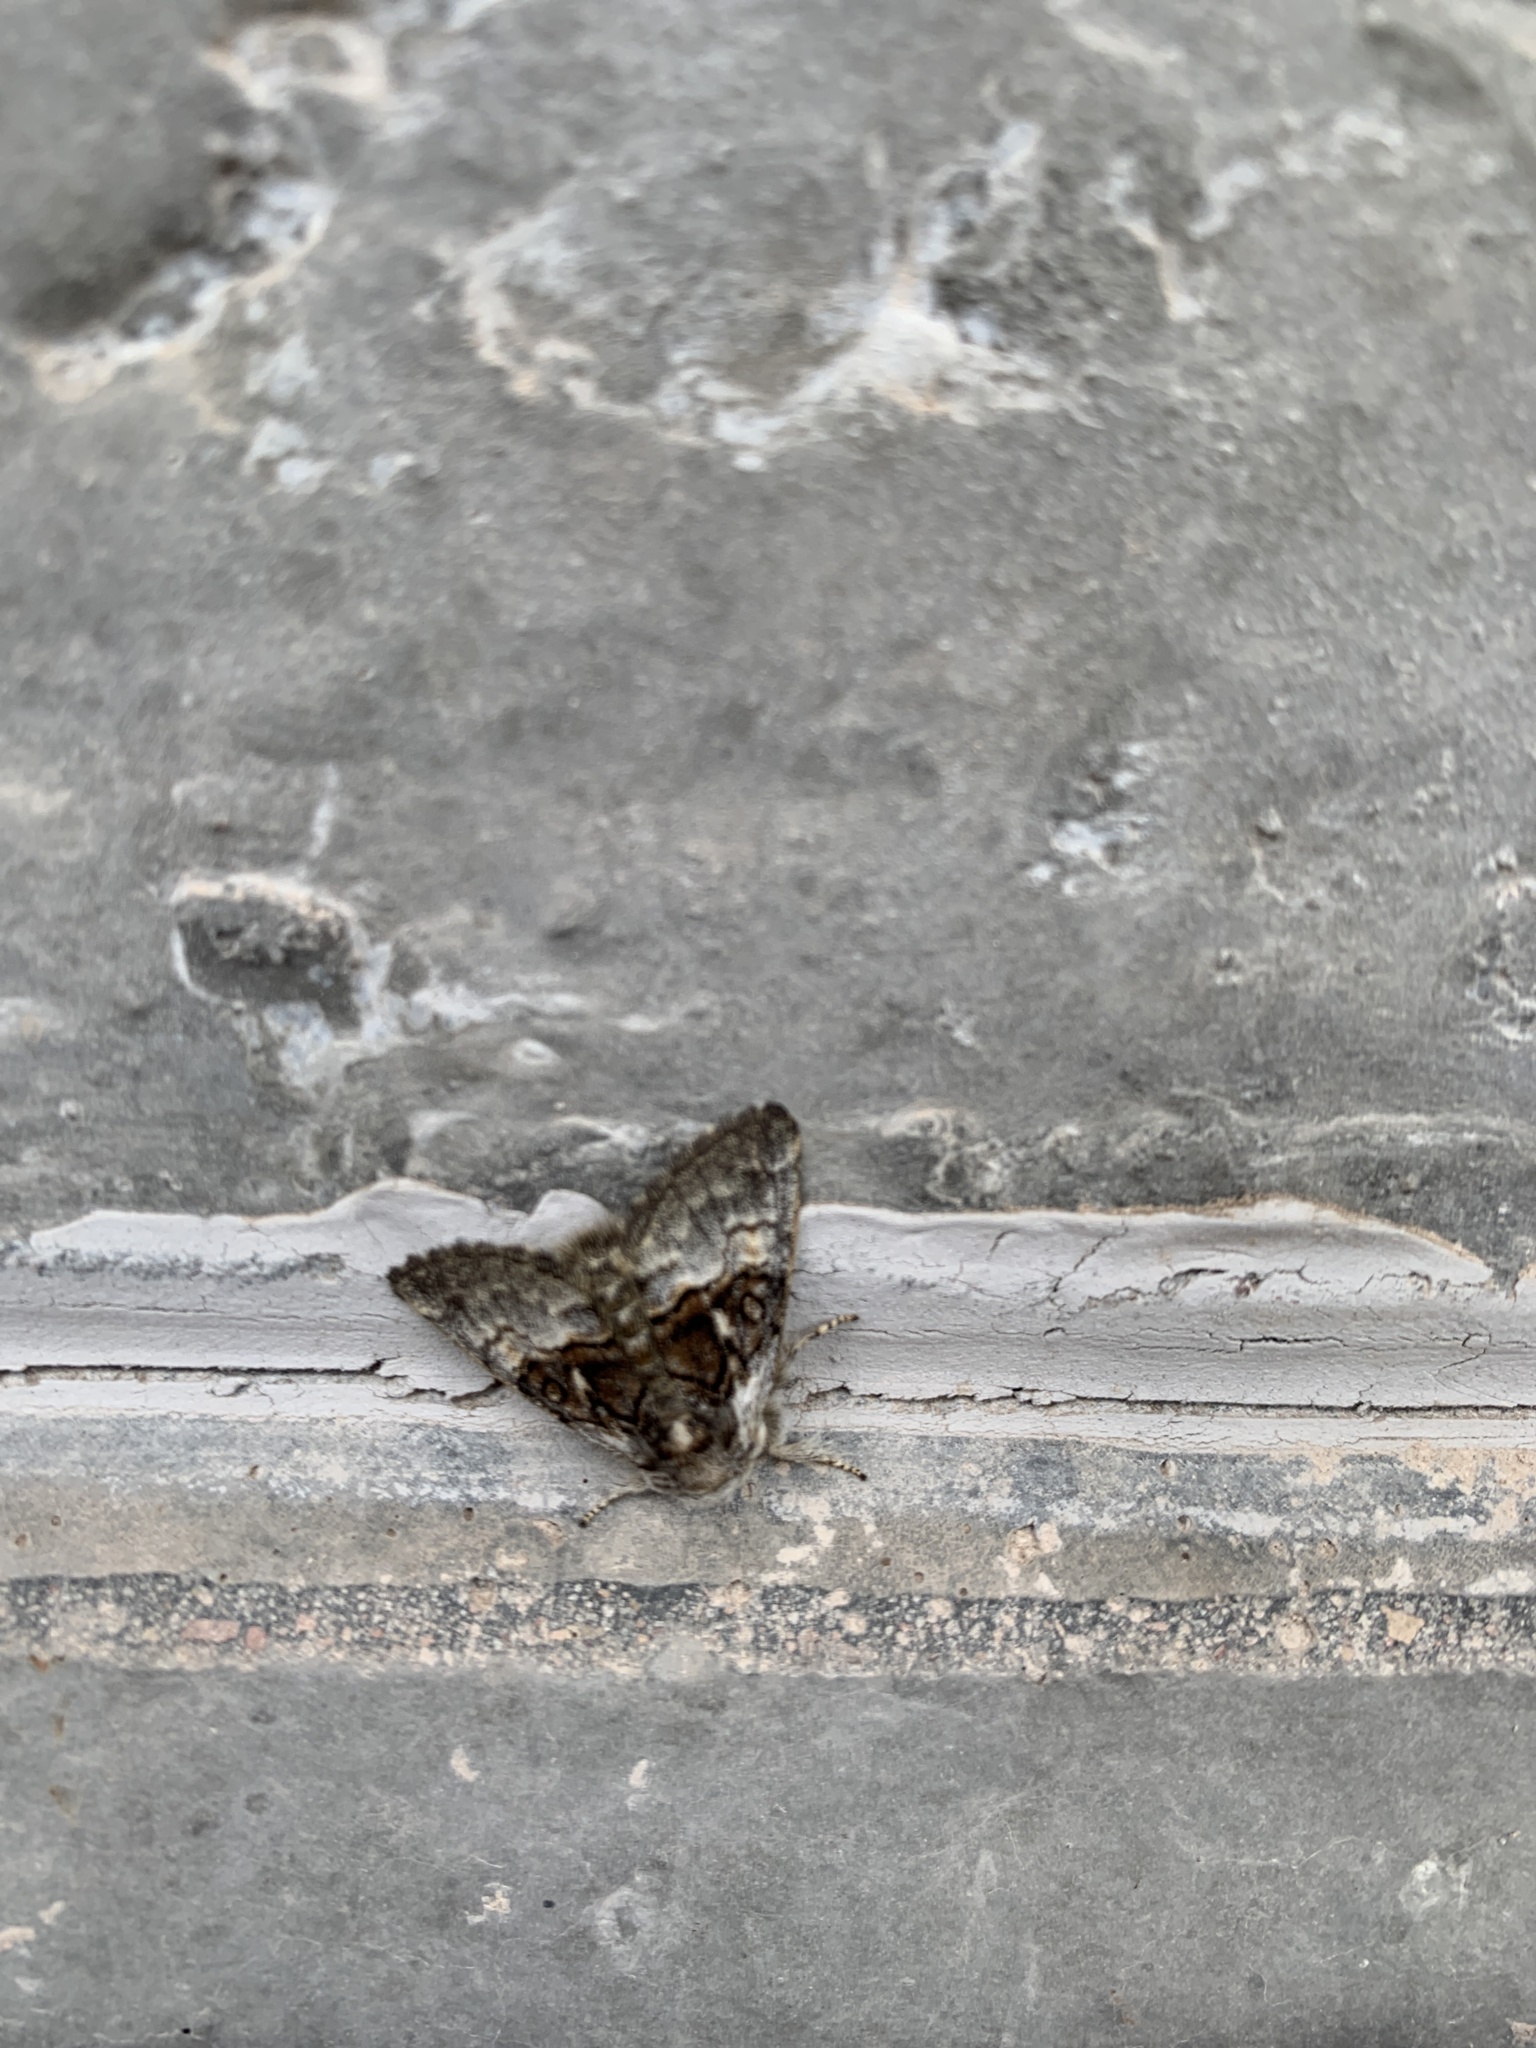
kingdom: Animalia
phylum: Arthropoda
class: Insecta
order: Lepidoptera
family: Noctuidae
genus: Colocasia
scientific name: Colocasia coryli
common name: Nut-tree tussock
